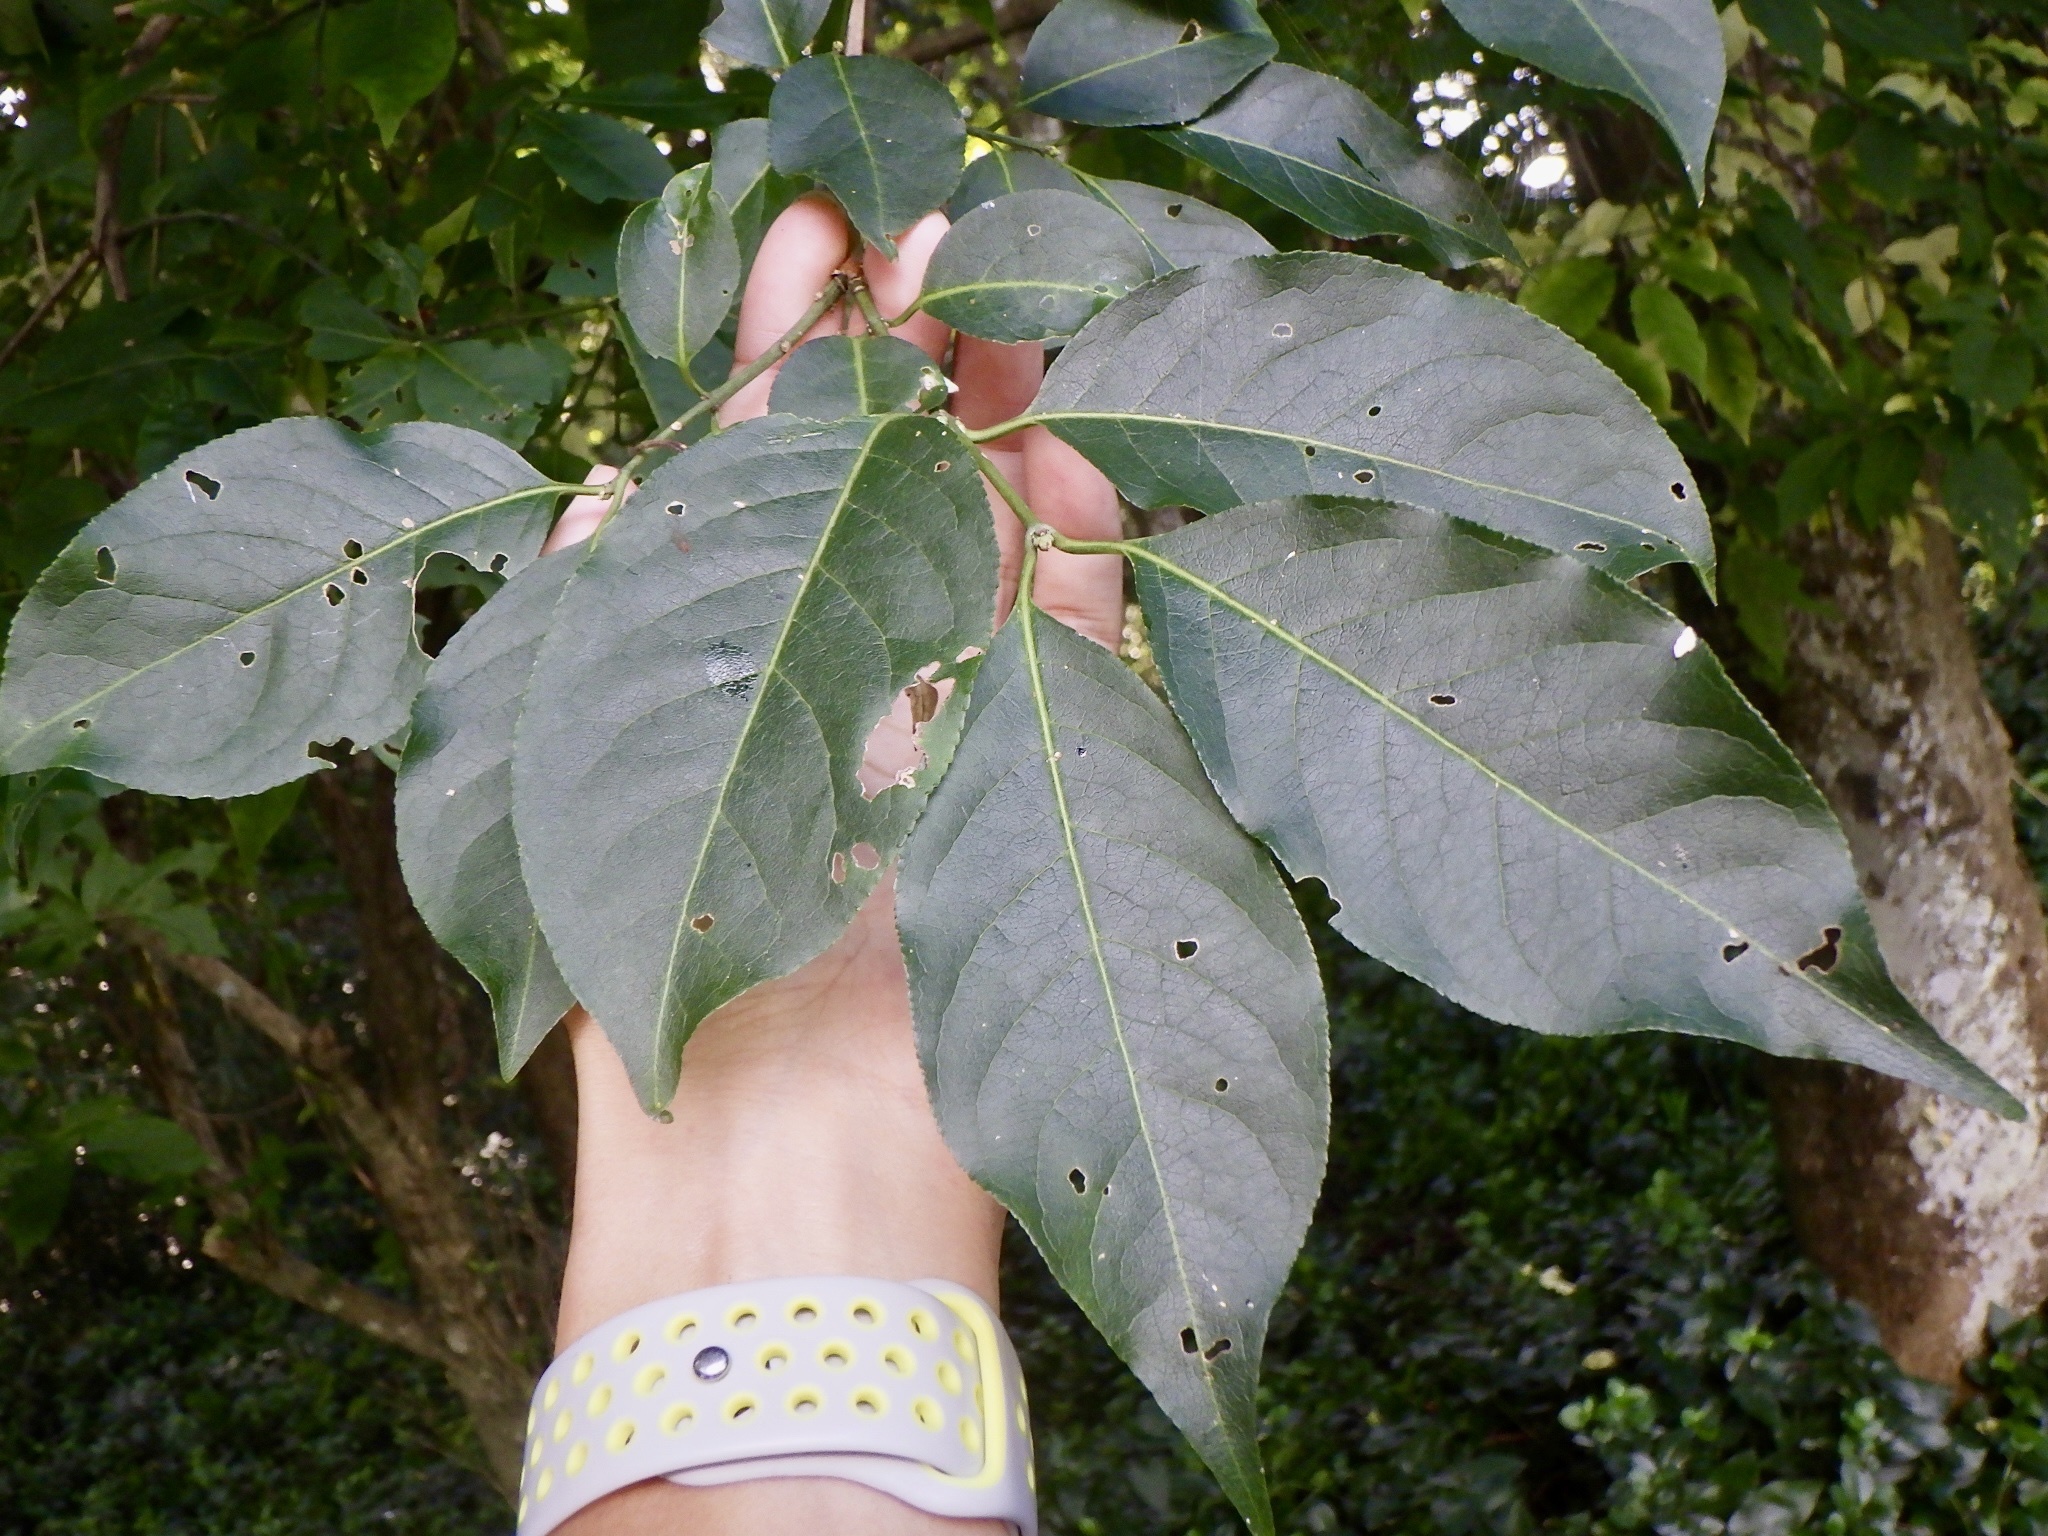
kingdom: Plantae
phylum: Tracheophyta
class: Magnoliopsida
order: Celastrales
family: Celastraceae
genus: Euonymus
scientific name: Euonymus hamiltonianus
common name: Hamilton's spindletree
